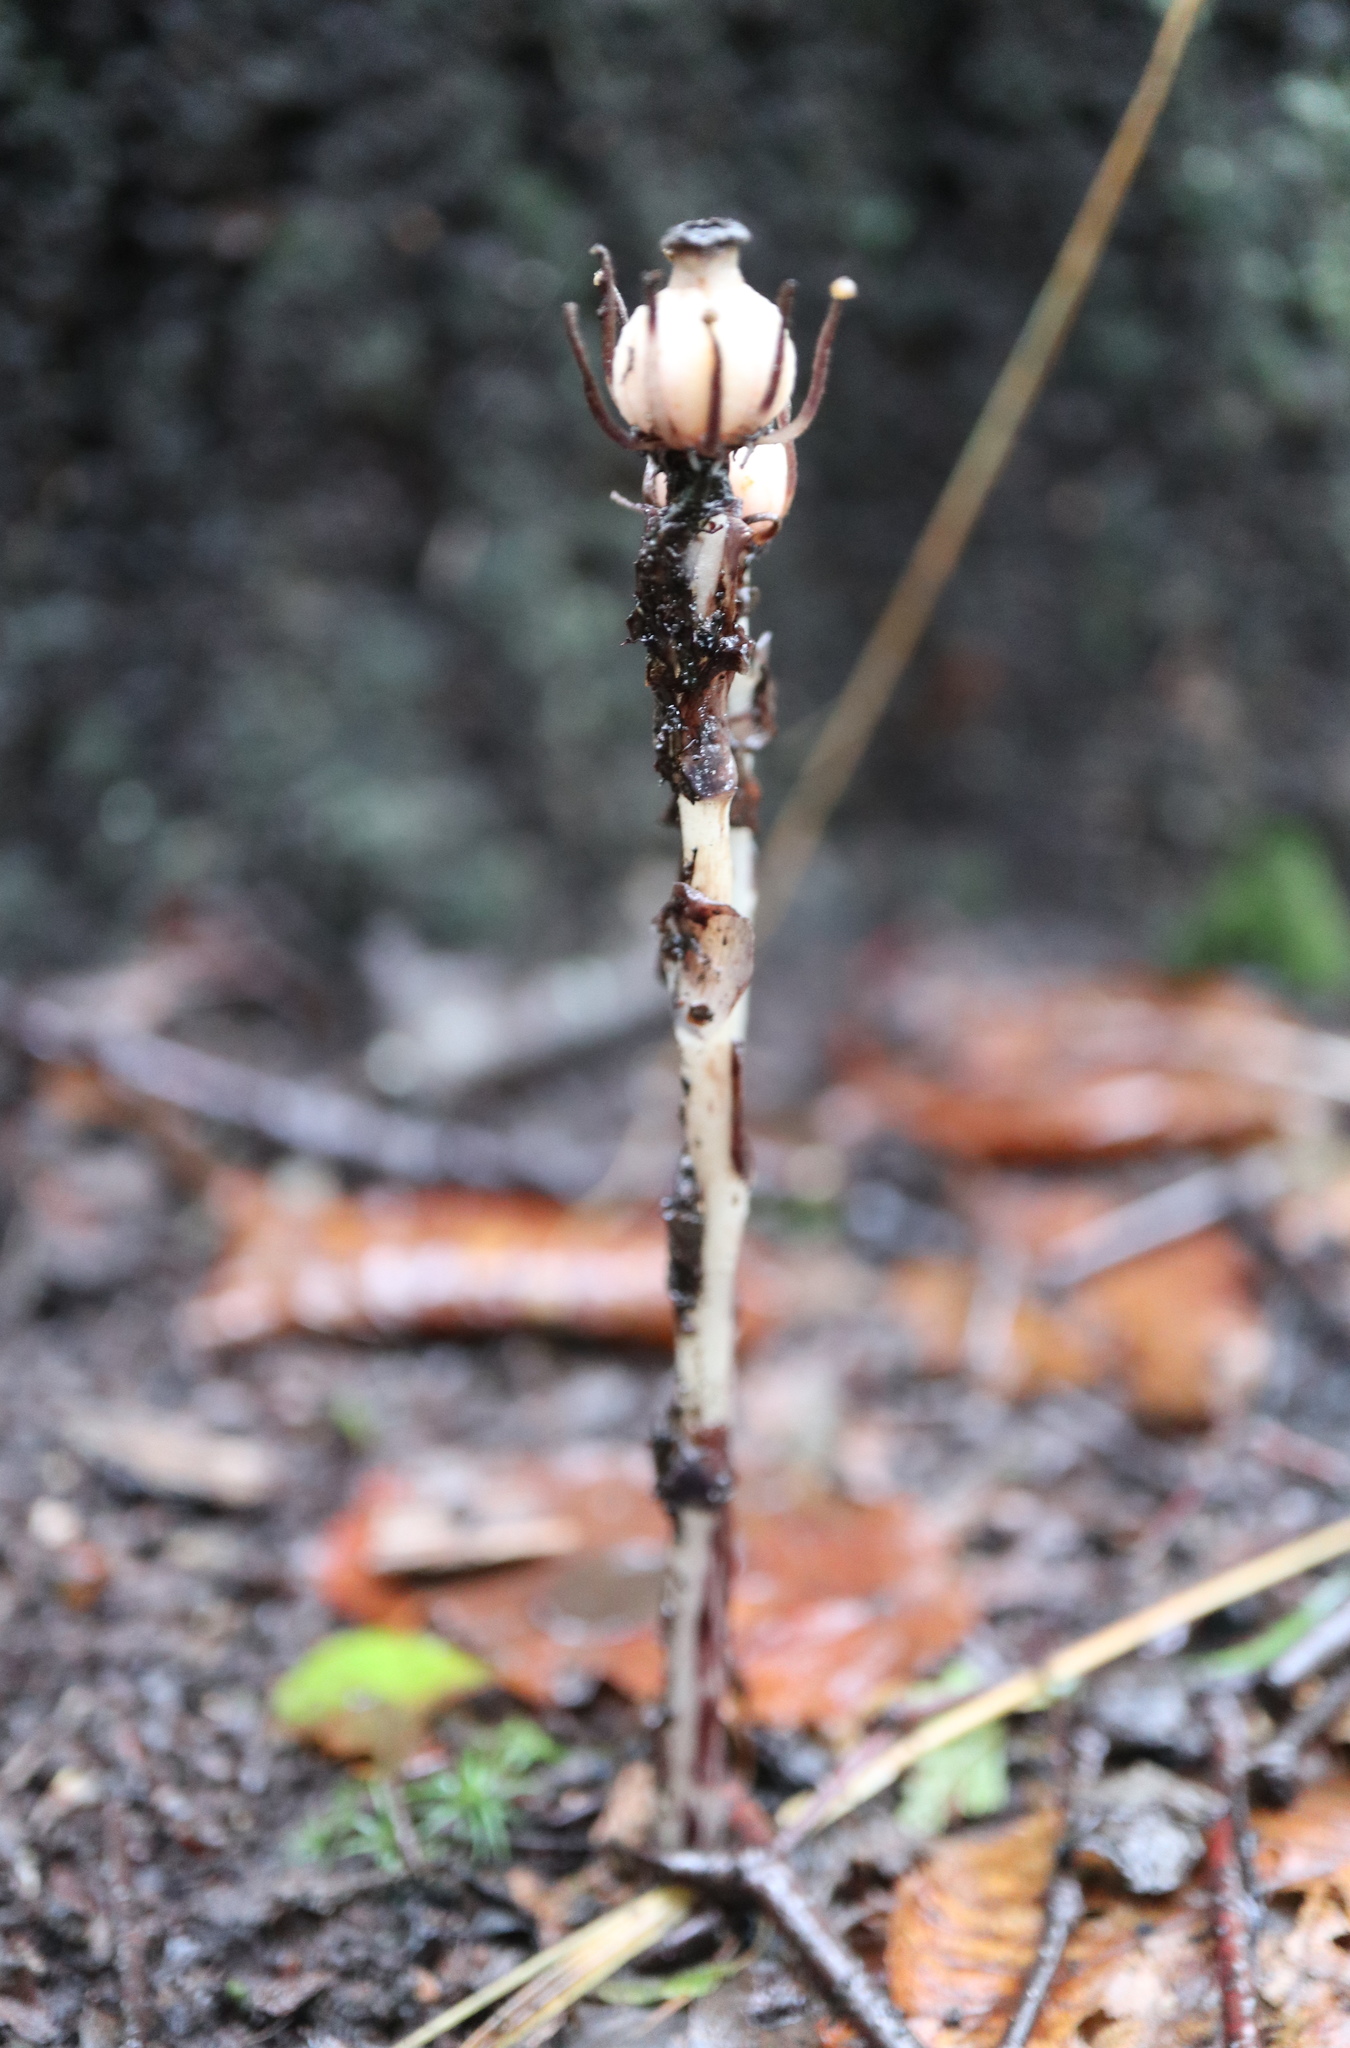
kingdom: Plantae
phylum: Tracheophyta
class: Magnoliopsida
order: Ericales
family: Ericaceae
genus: Monotropa
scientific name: Monotropa uniflora
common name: Convulsion root
